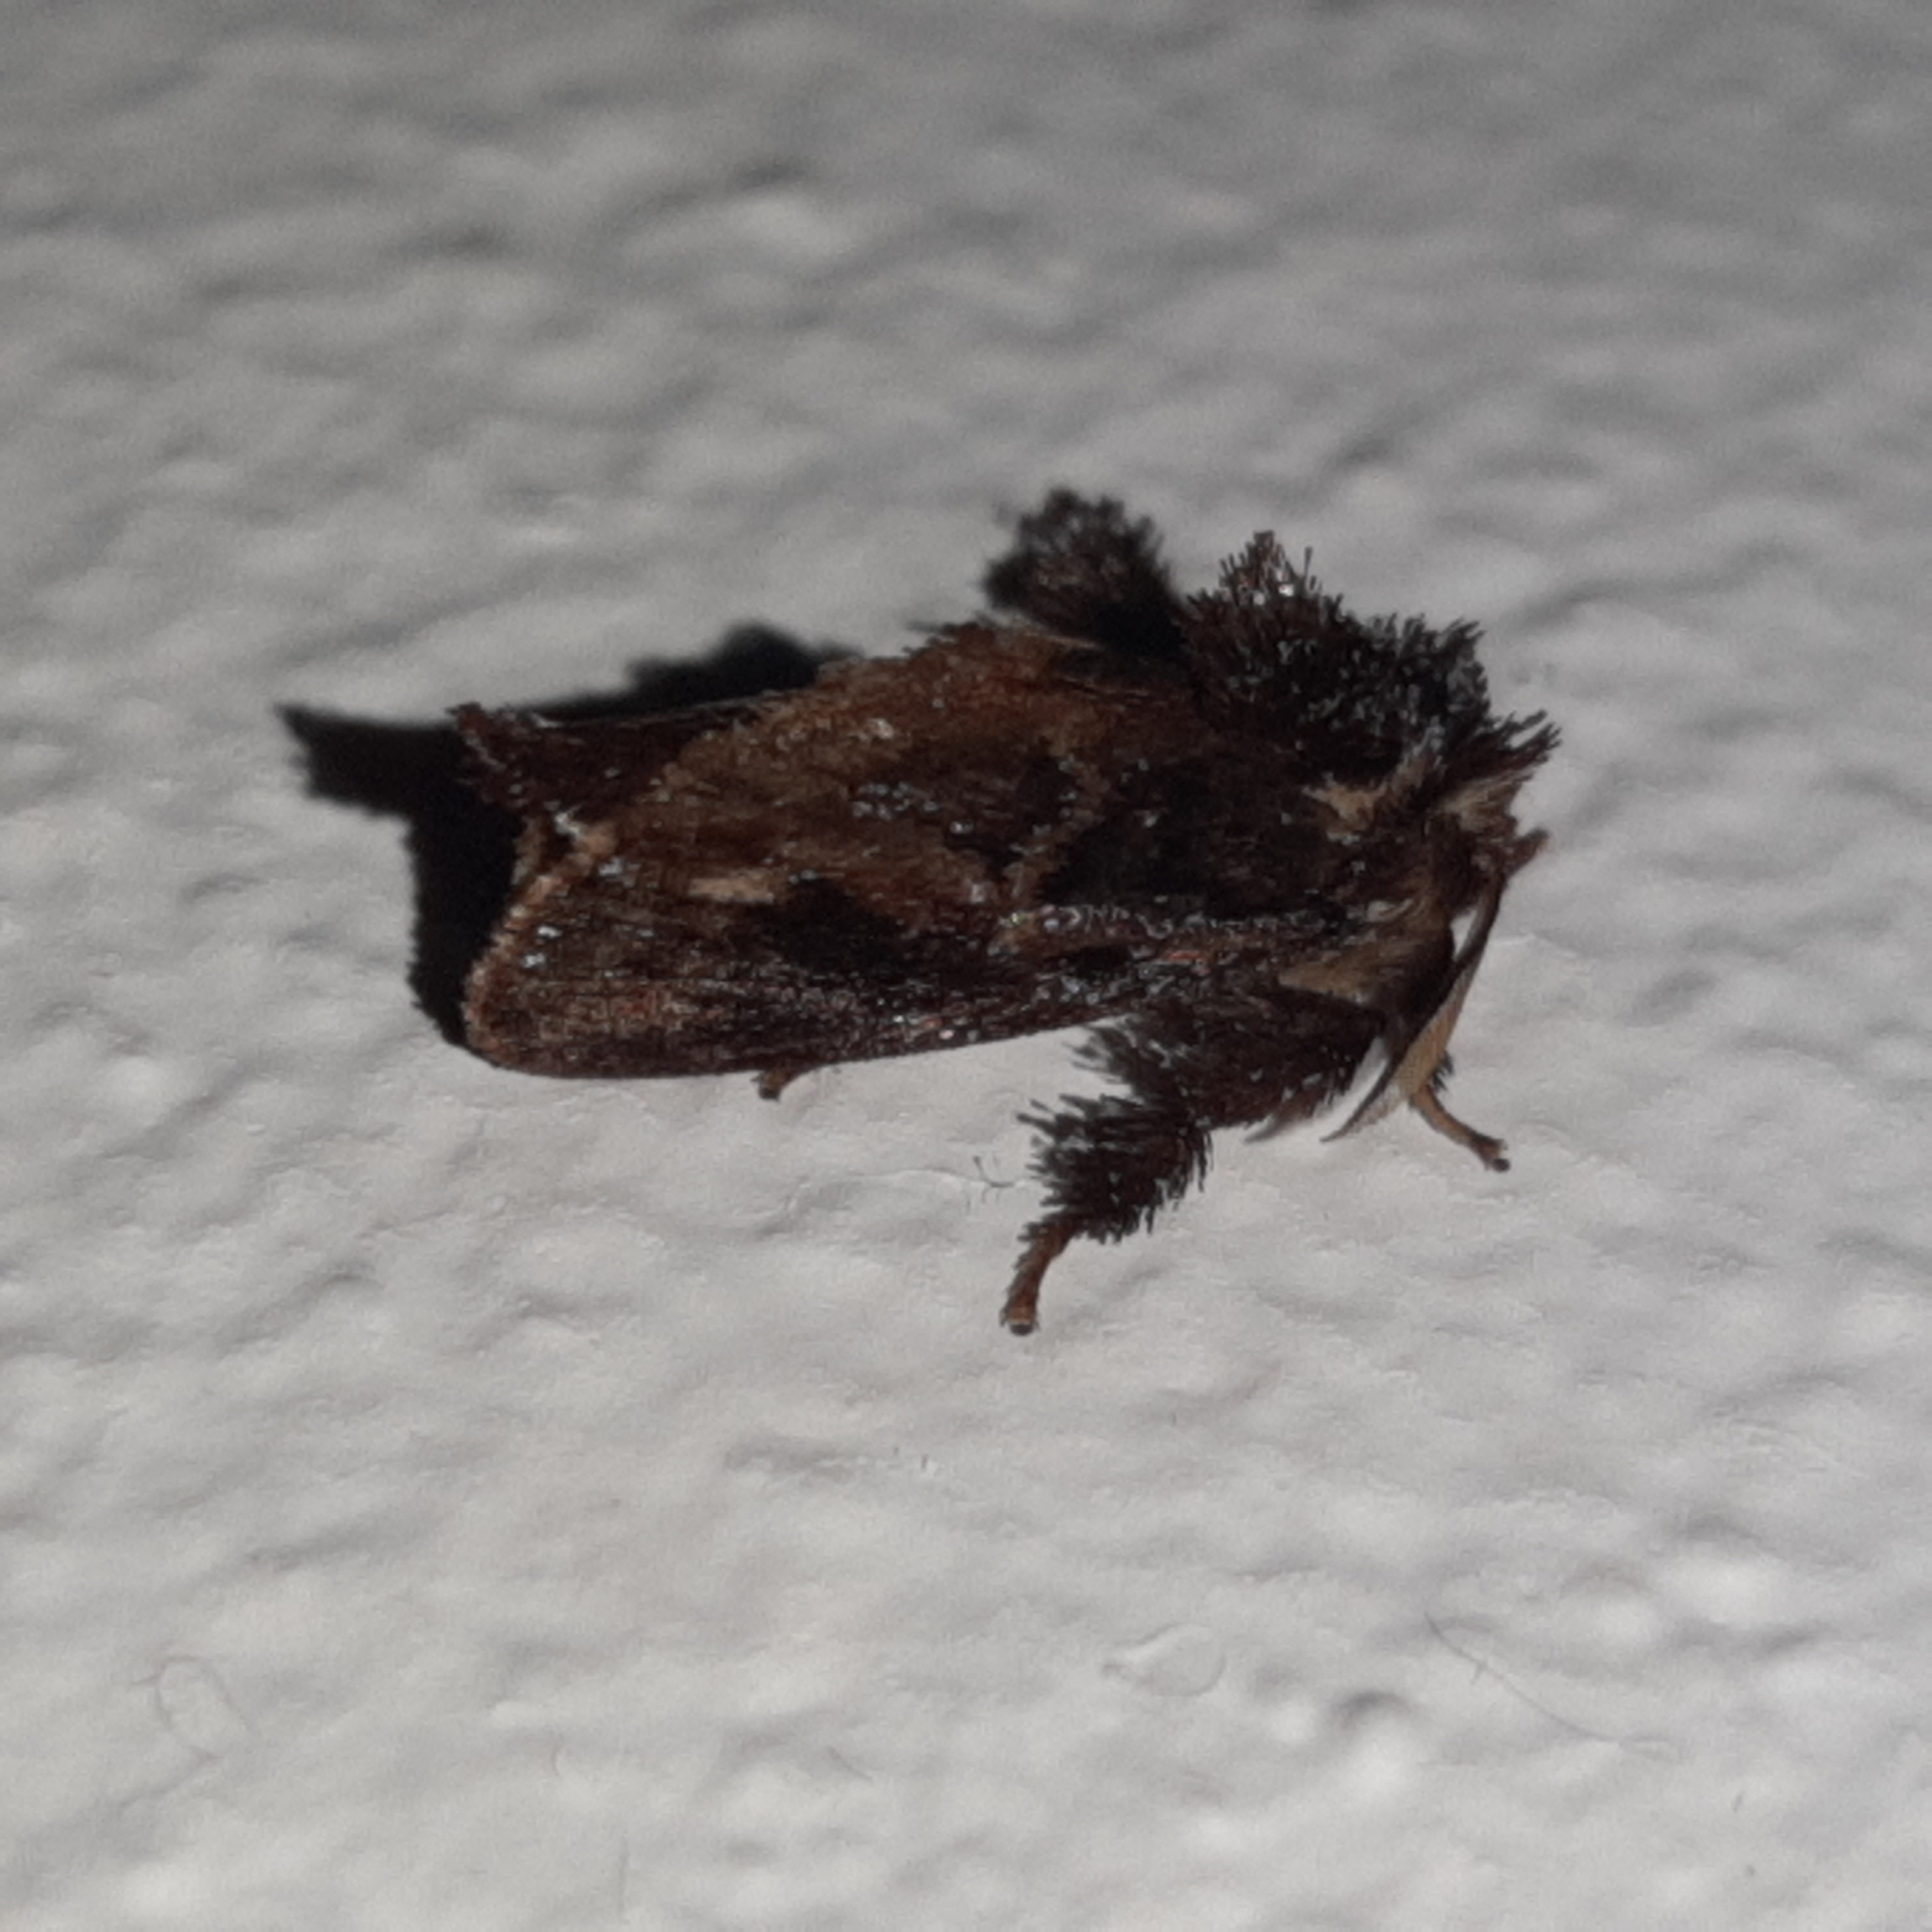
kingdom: Animalia
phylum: Arthropoda
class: Insecta
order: Lepidoptera
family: Limacodidae
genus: Isochaetes
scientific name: Isochaetes dwagsi
